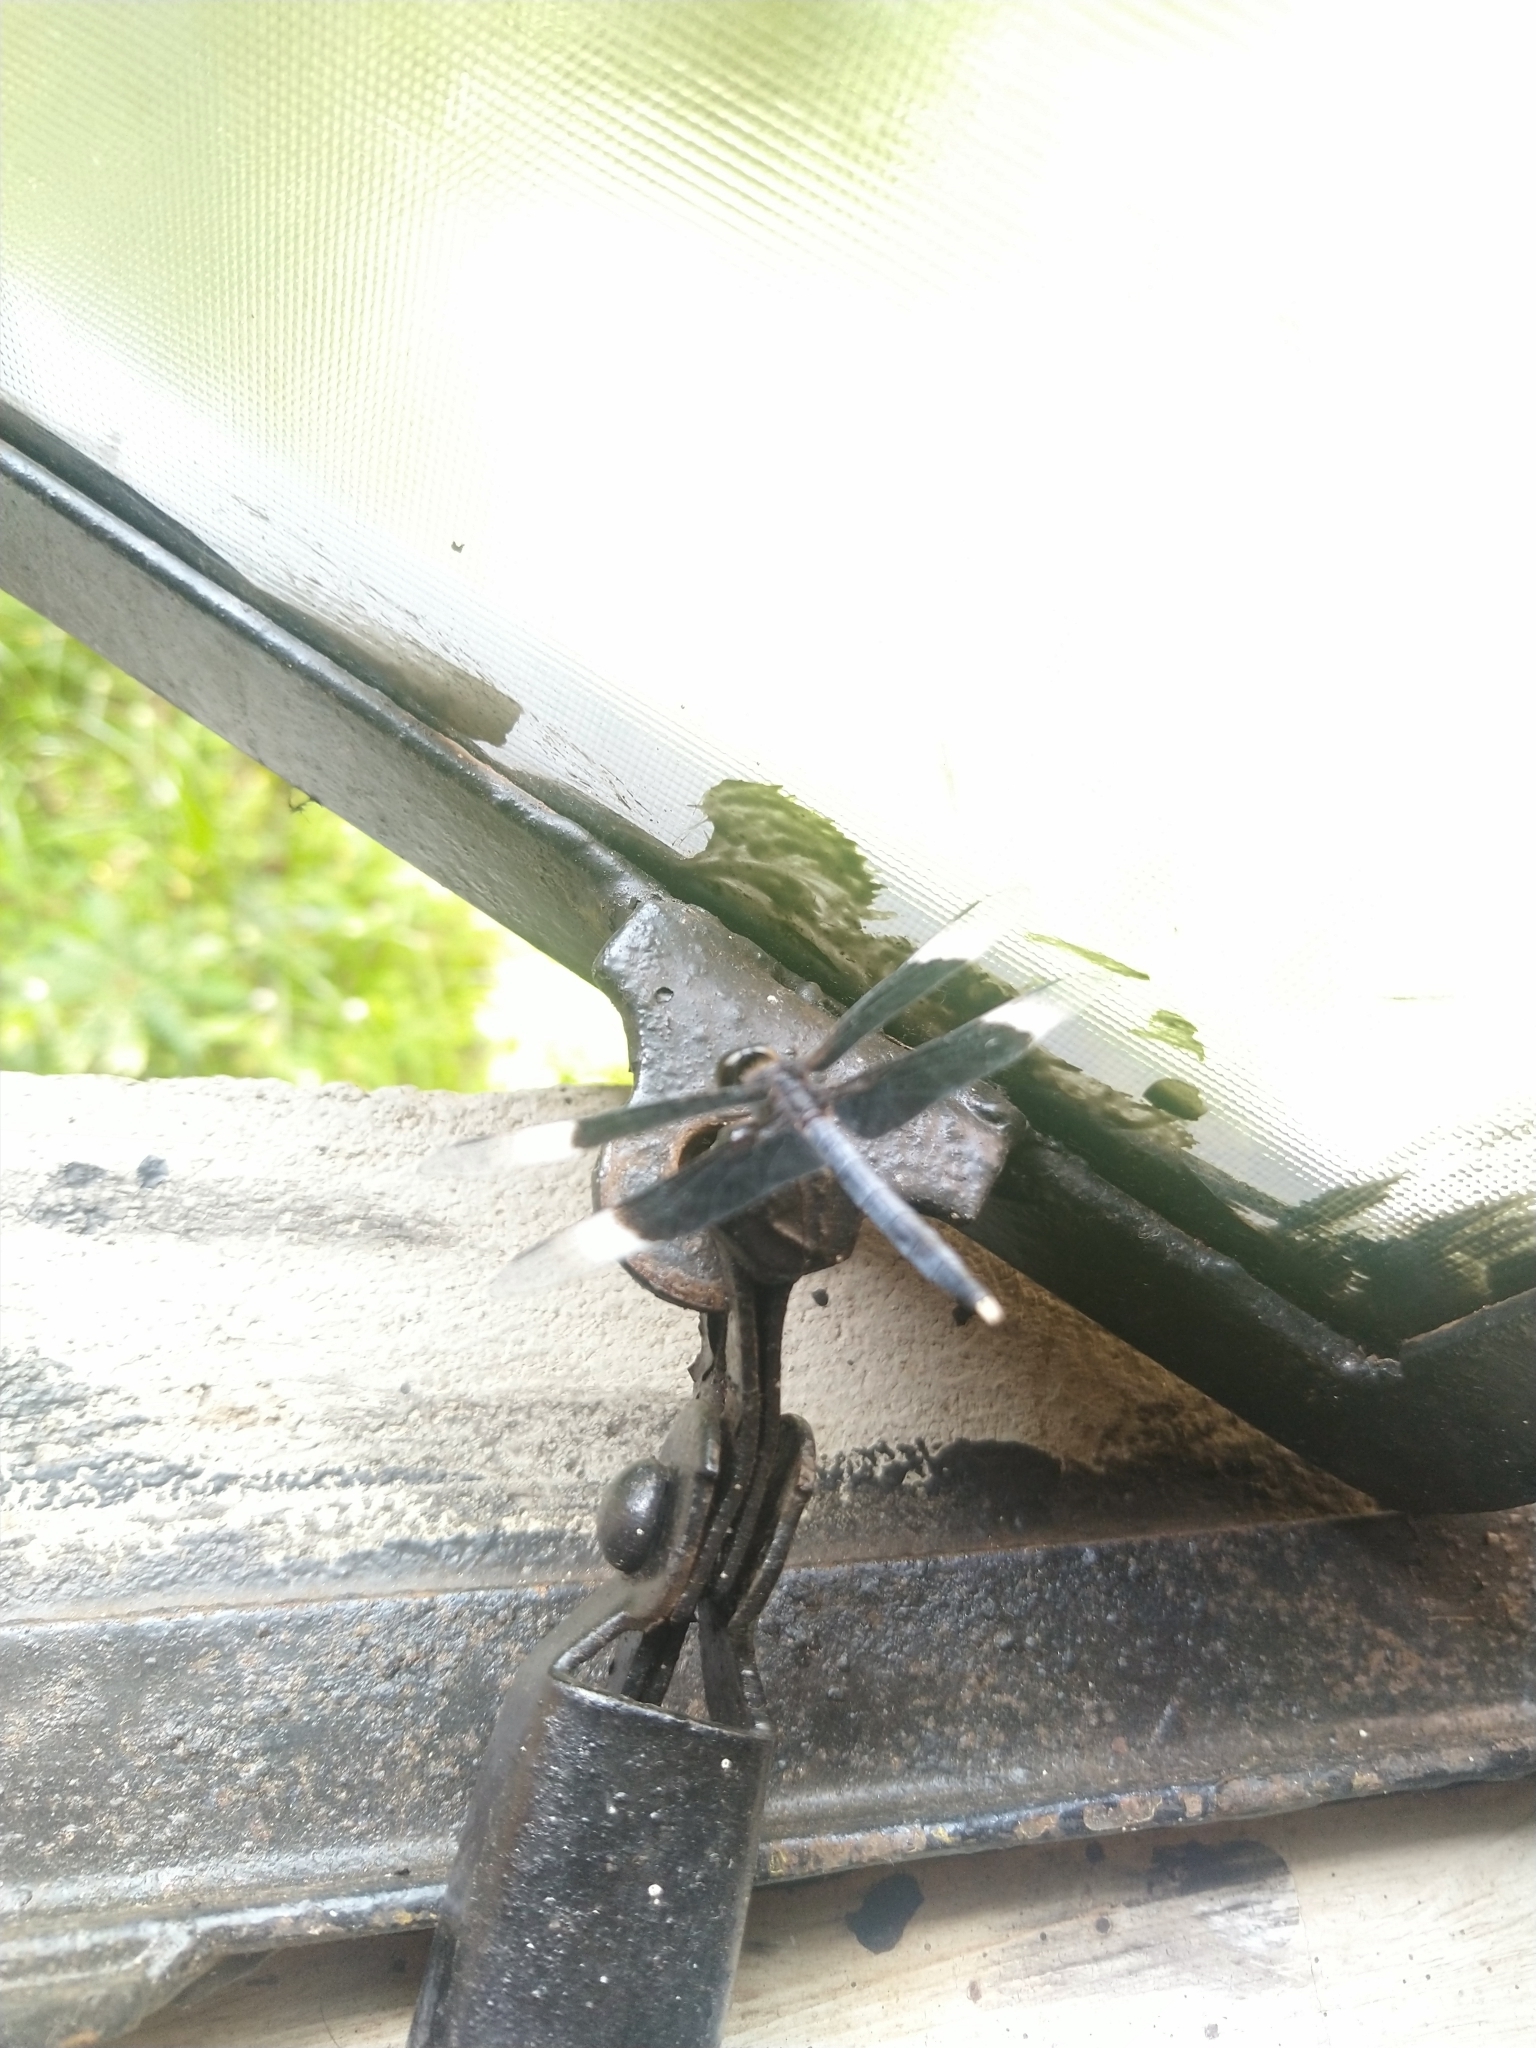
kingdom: Animalia
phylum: Arthropoda
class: Insecta
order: Odonata
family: Libellulidae
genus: Neurothemis
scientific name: Neurothemis tullia
